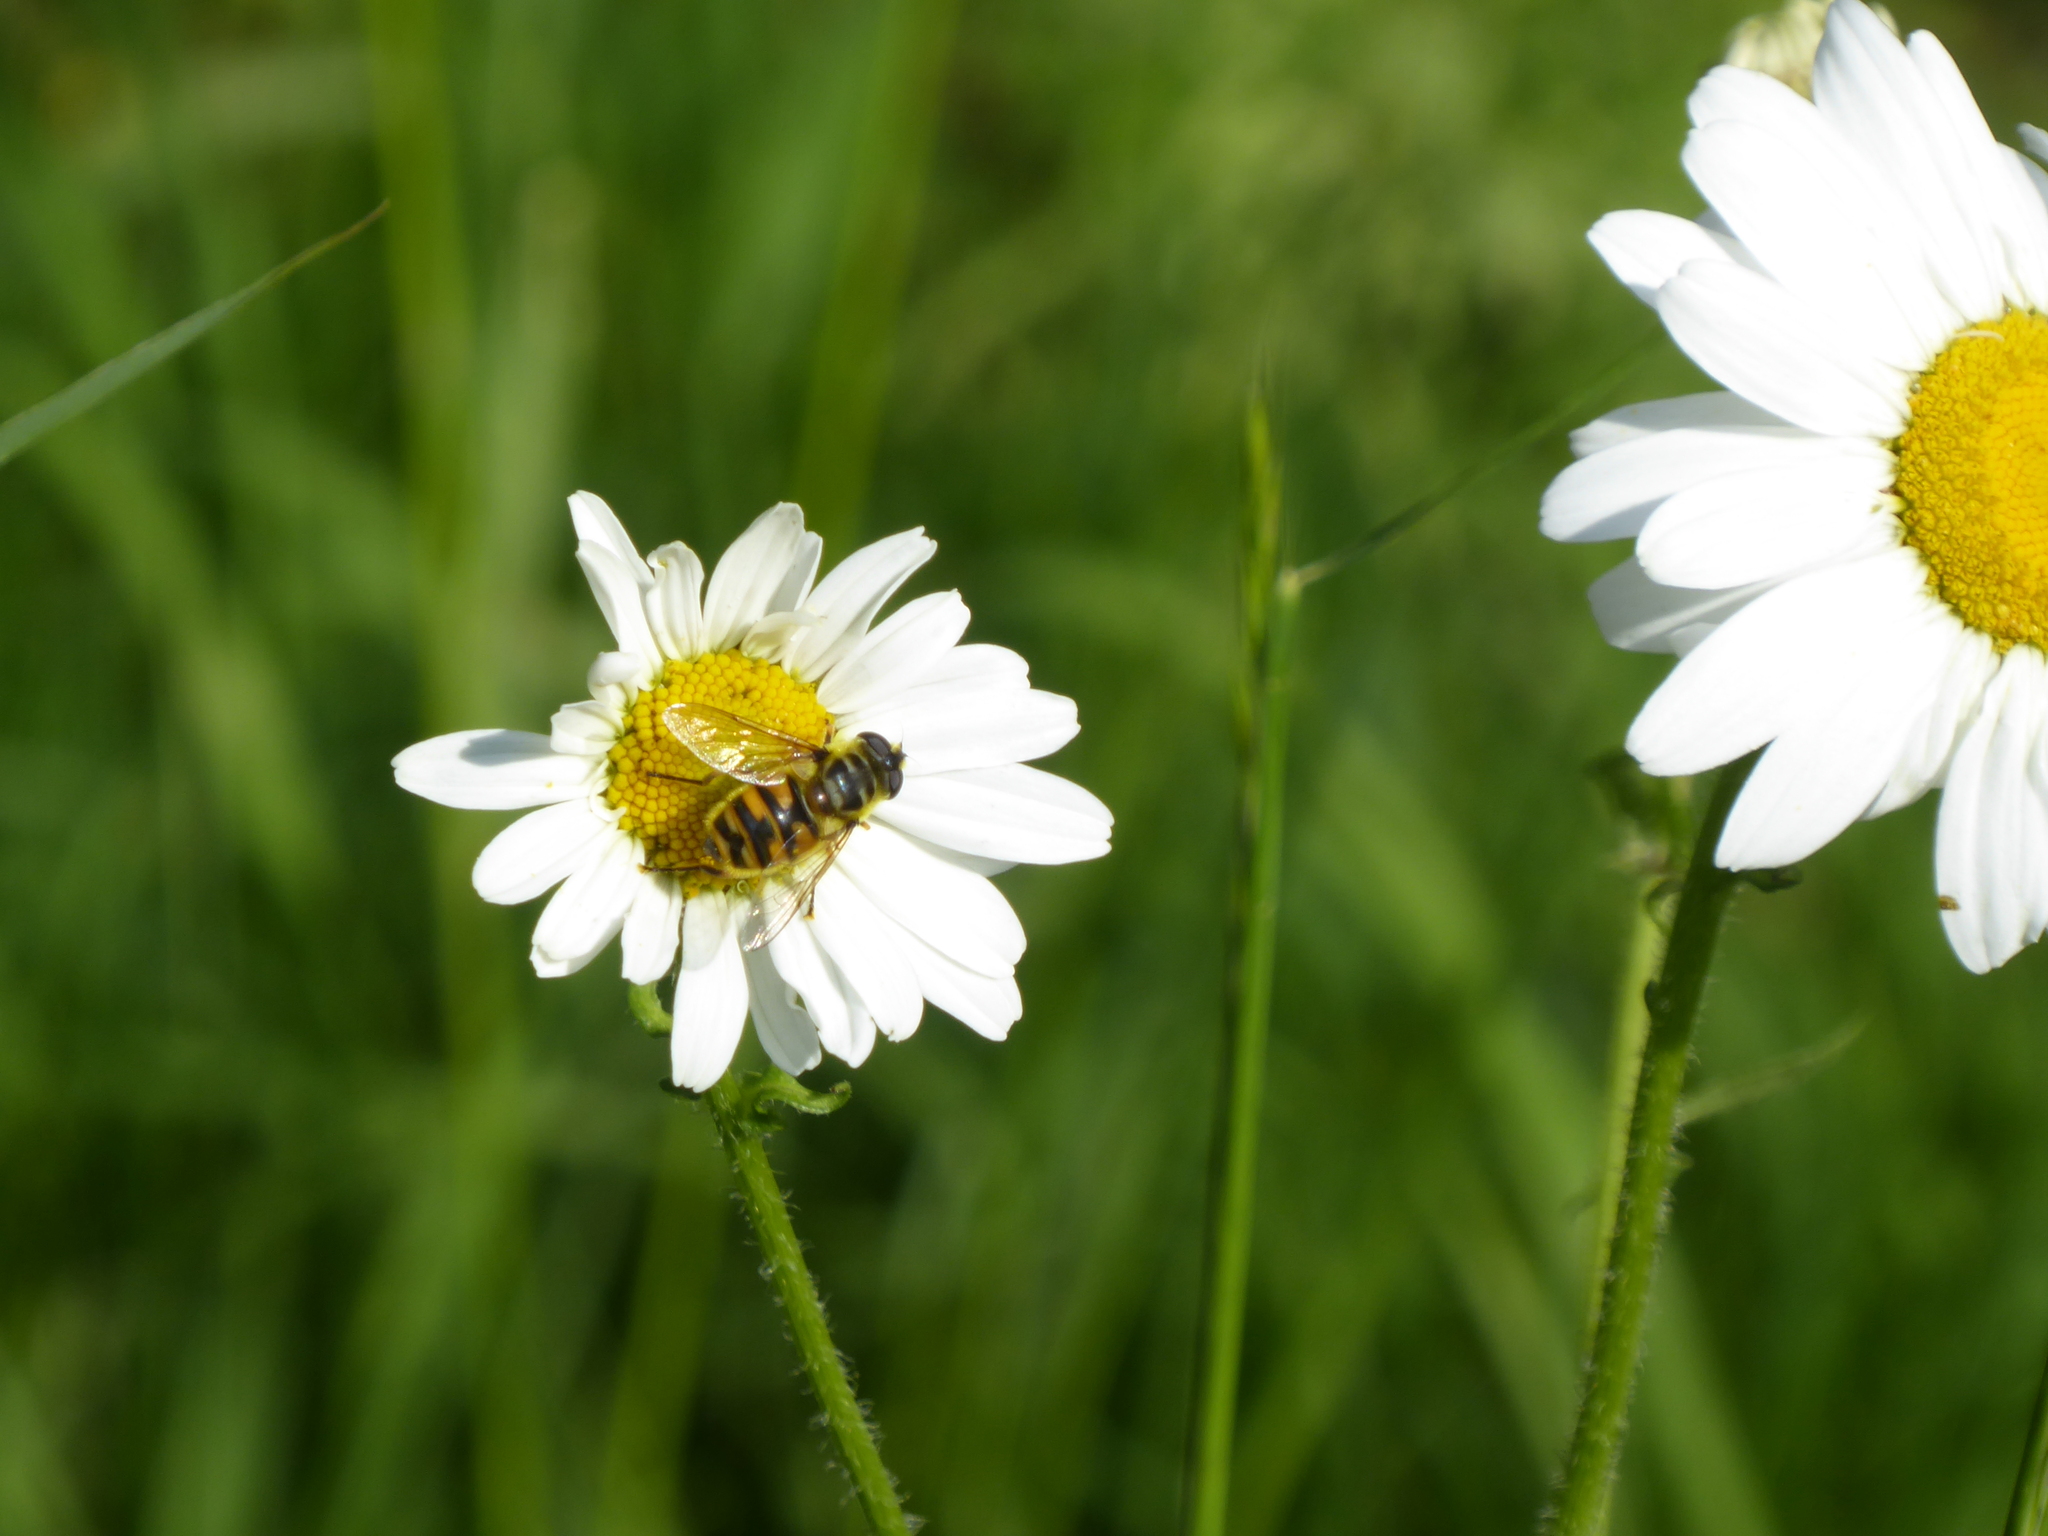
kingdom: Animalia
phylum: Arthropoda
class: Insecta
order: Diptera
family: Syrphidae
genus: Myathropa
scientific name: Myathropa florea
